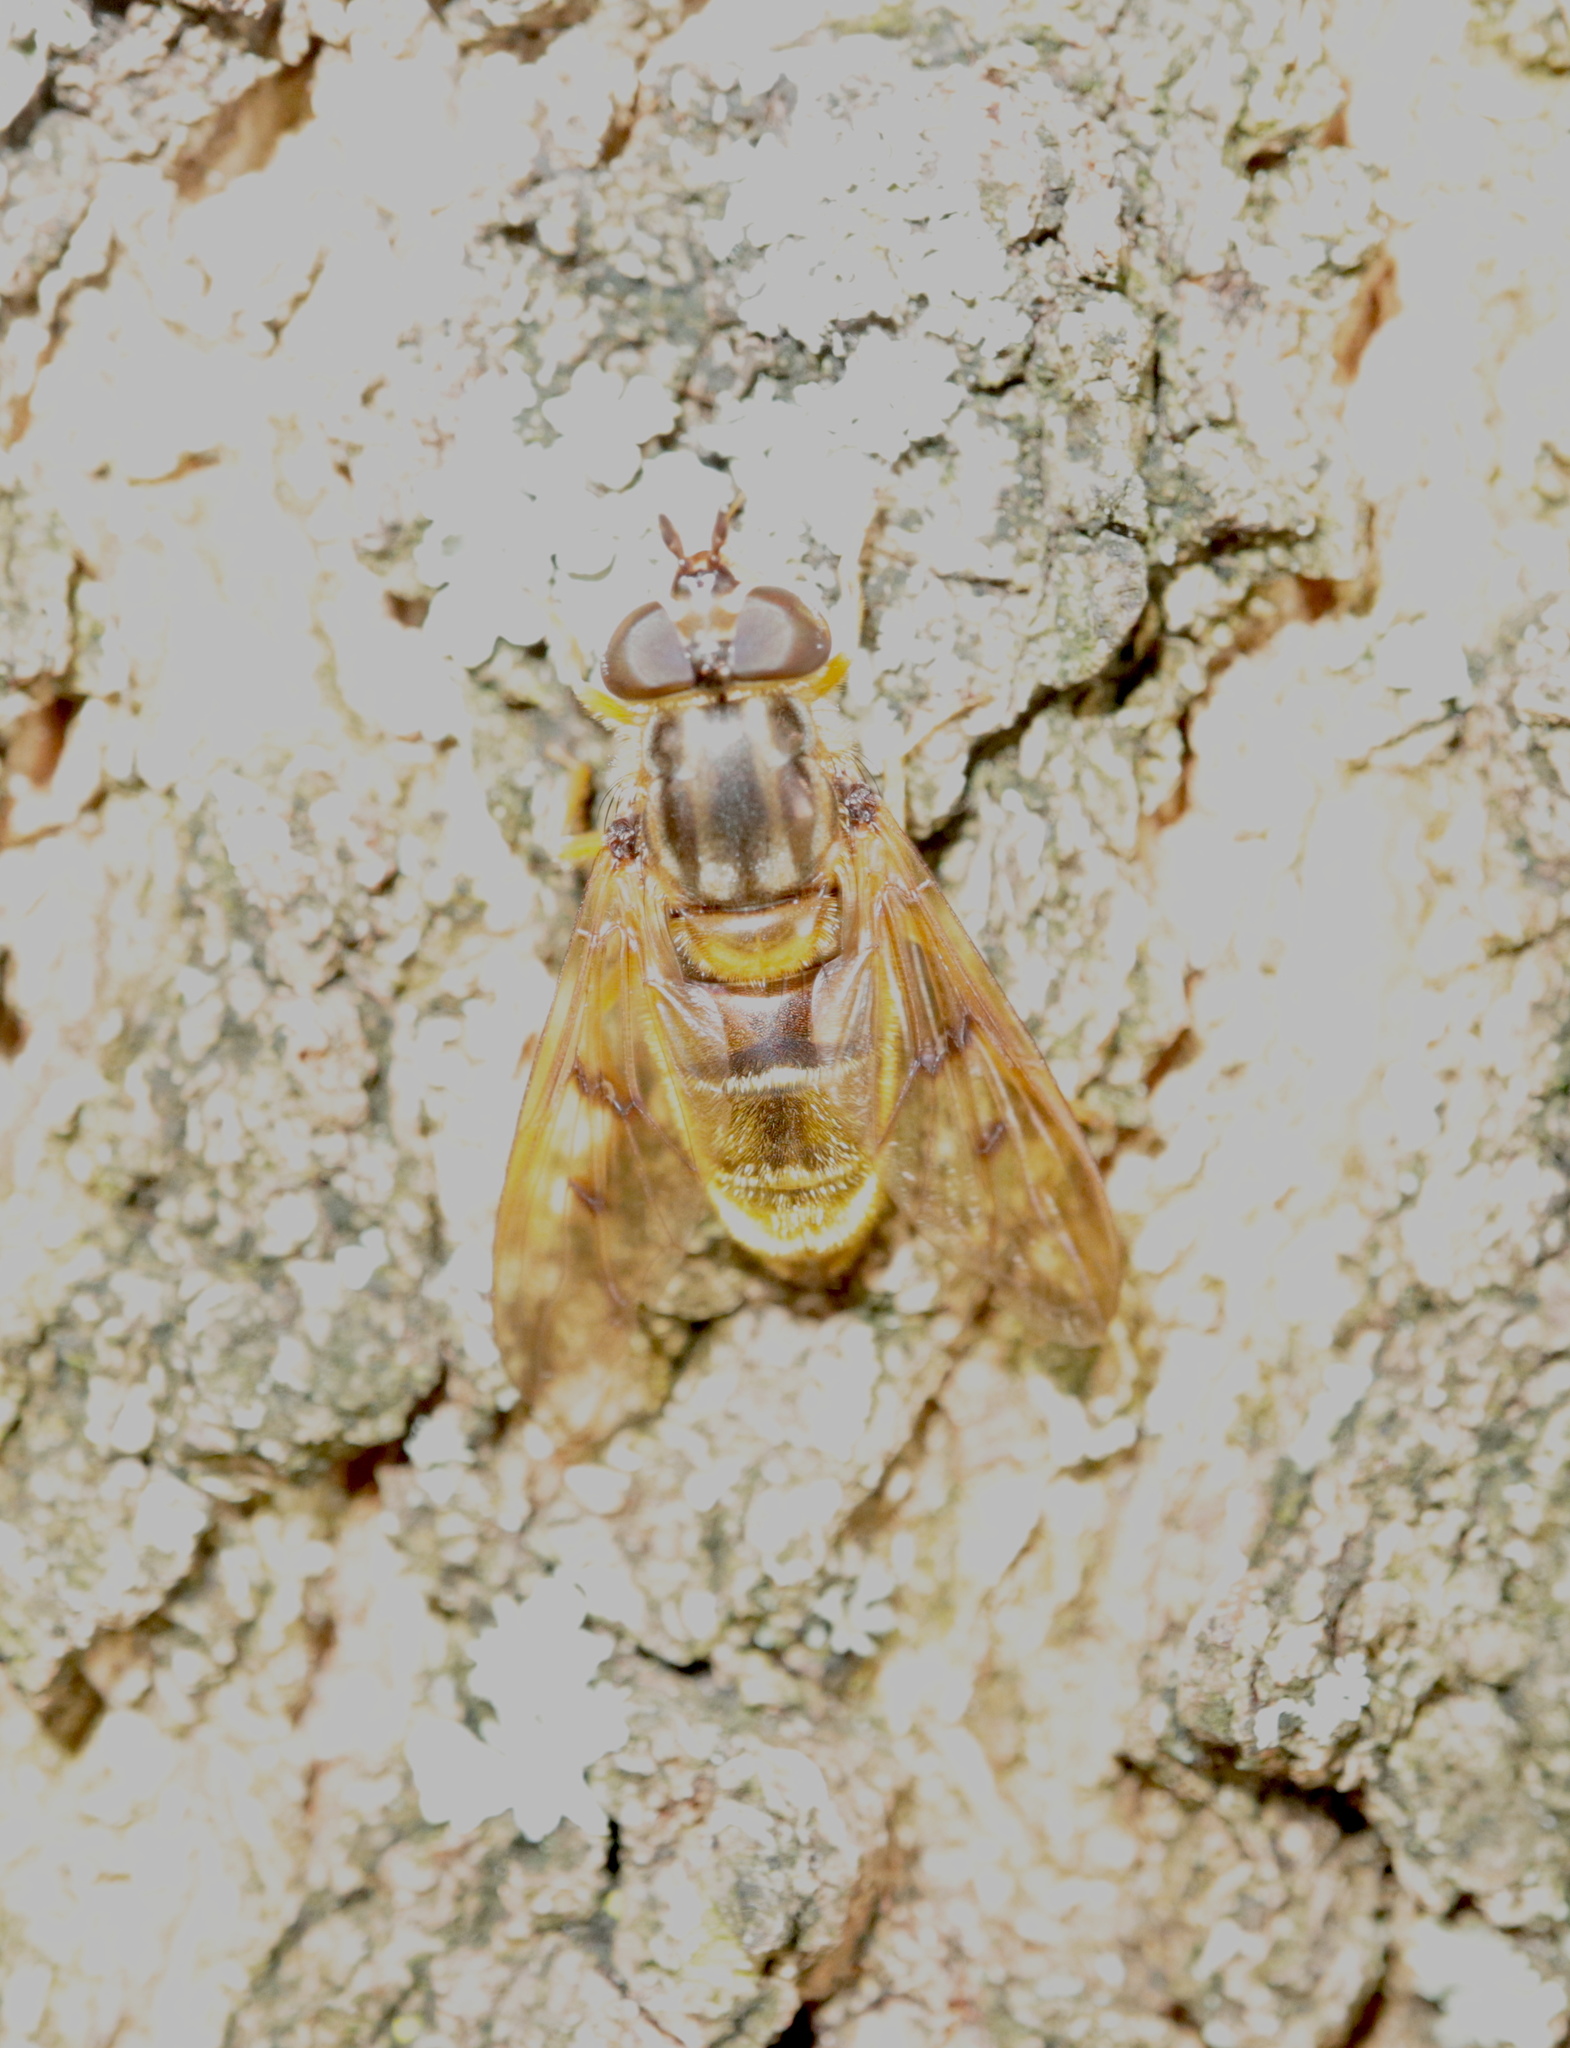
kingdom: Animalia
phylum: Arthropoda
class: Insecta
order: Diptera
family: Syrphidae
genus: Ferdinandea
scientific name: Ferdinandea buccata
